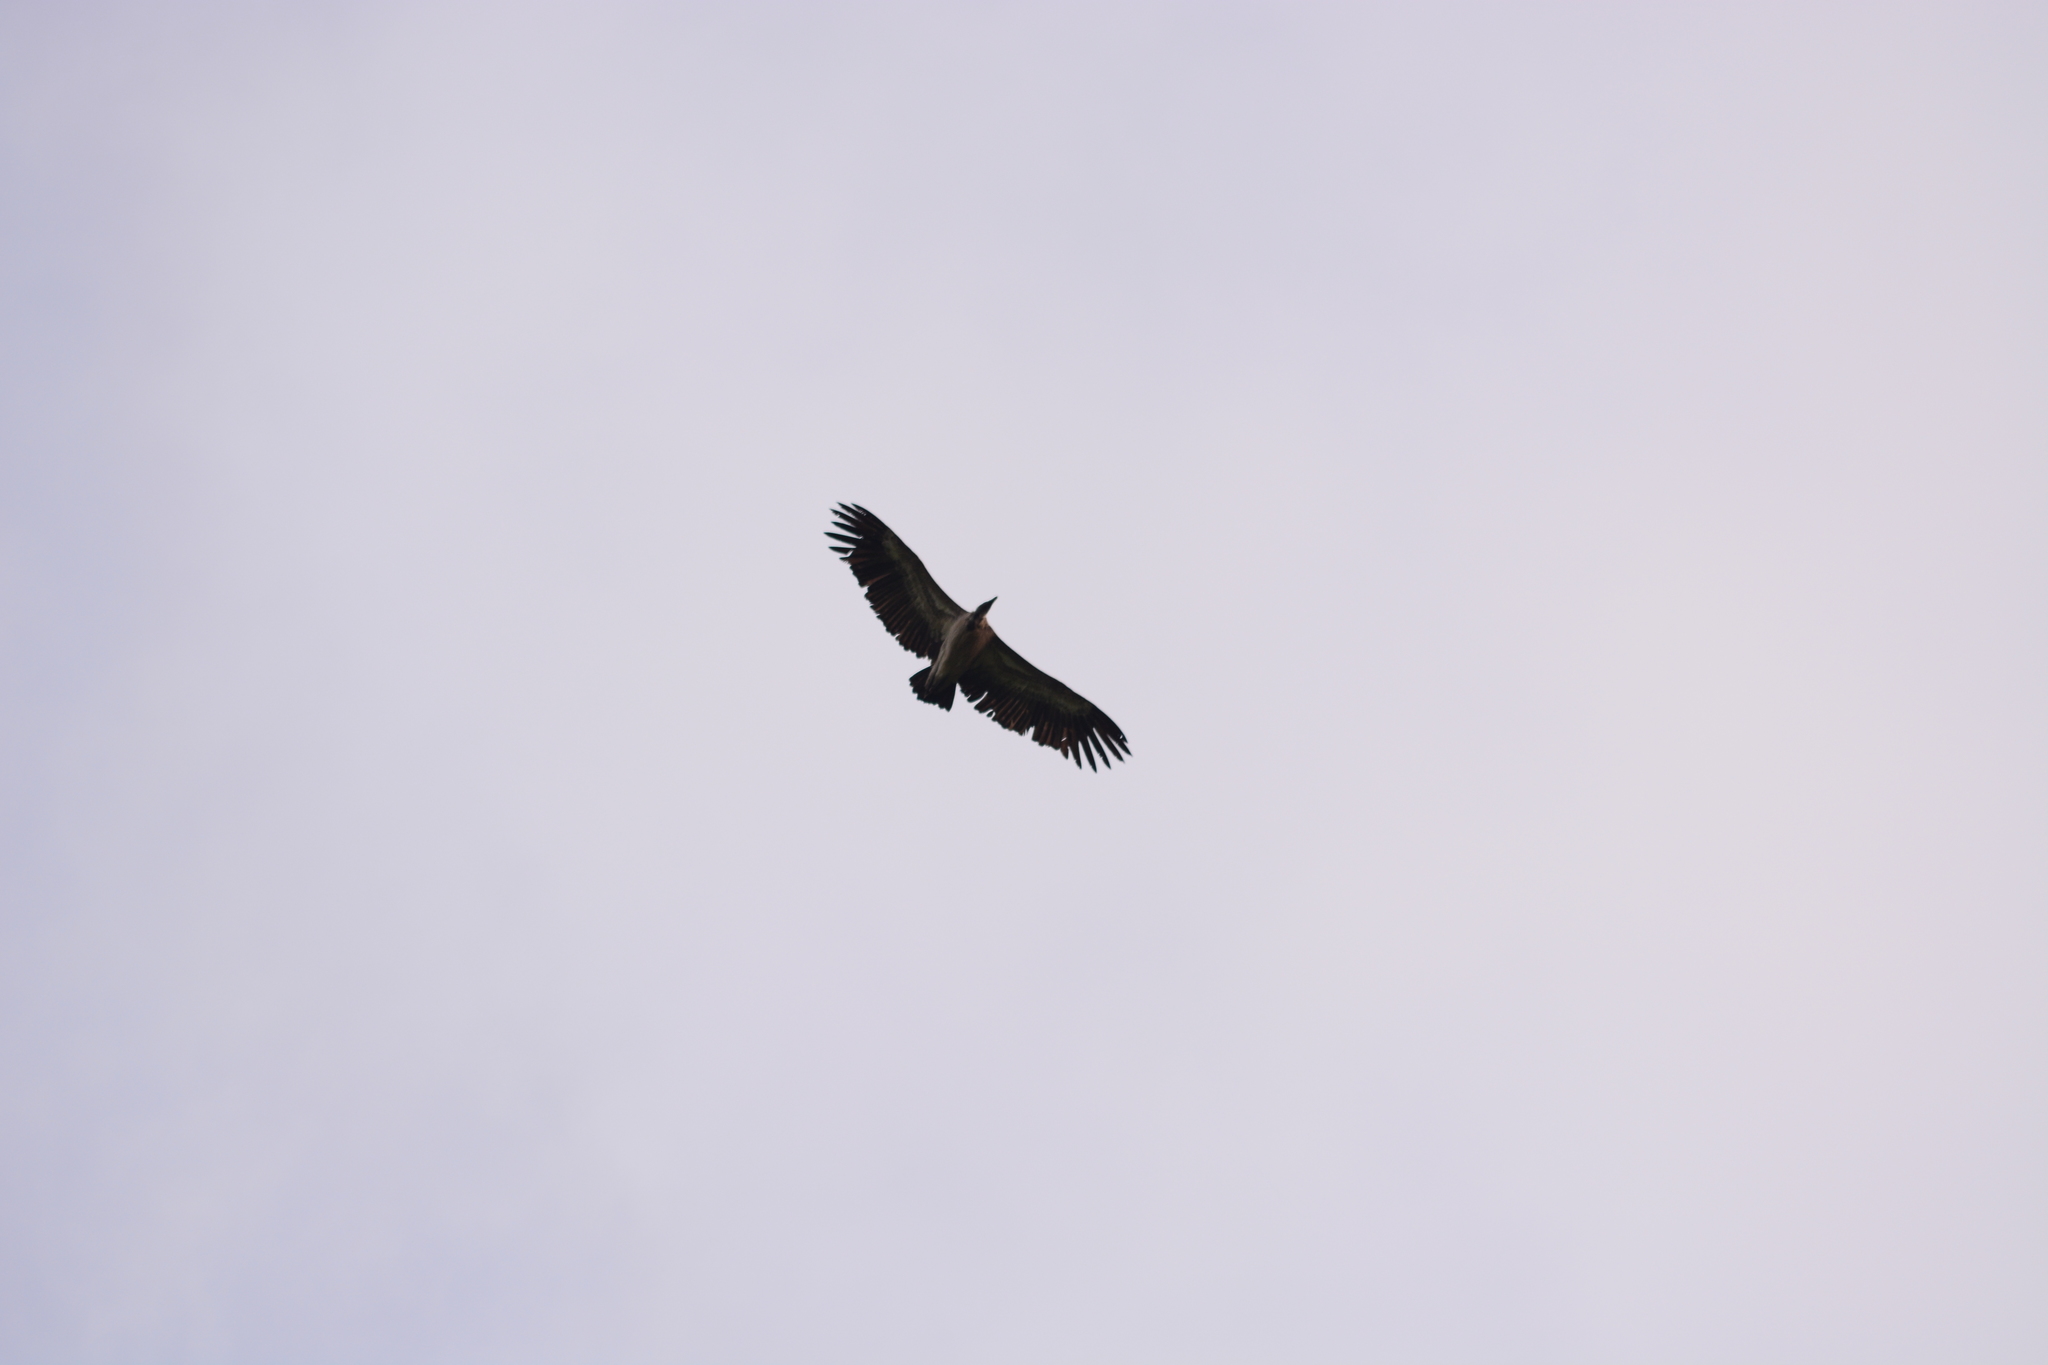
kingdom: Animalia
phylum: Chordata
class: Aves
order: Accipitriformes
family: Accipitridae
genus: Gyps
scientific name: Gyps indicus
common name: Indian vulture
